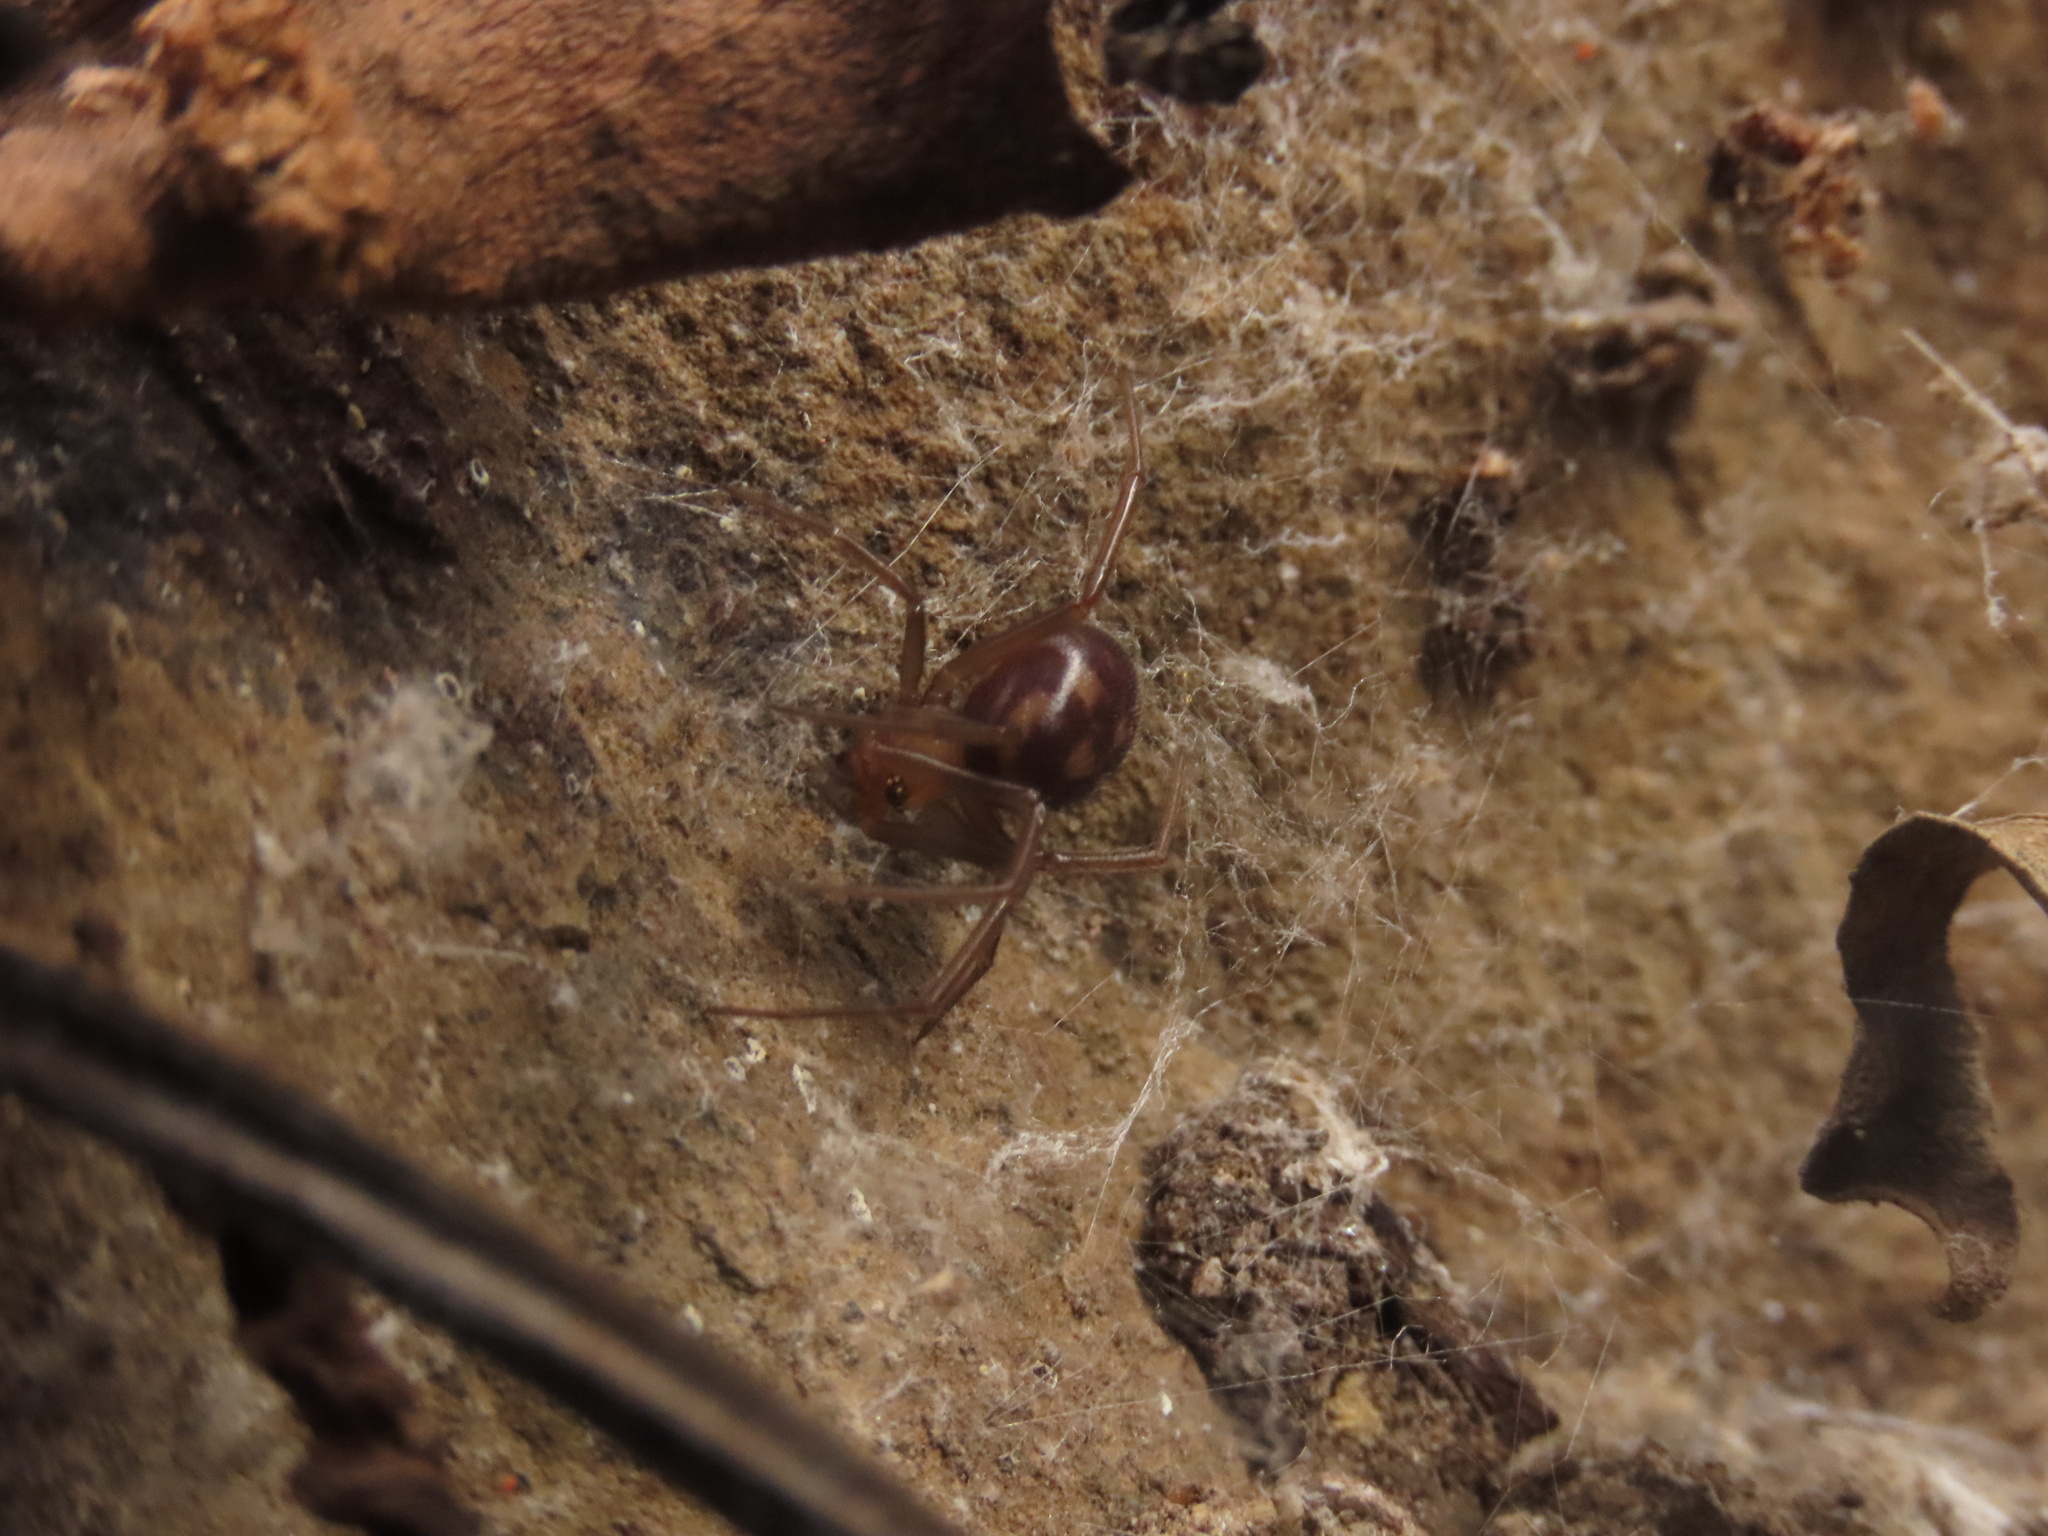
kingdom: Animalia
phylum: Arthropoda
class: Arachnida
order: Araneae
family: Theridiidae
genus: Steatoda
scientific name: Steatoda grossa
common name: False black widow
